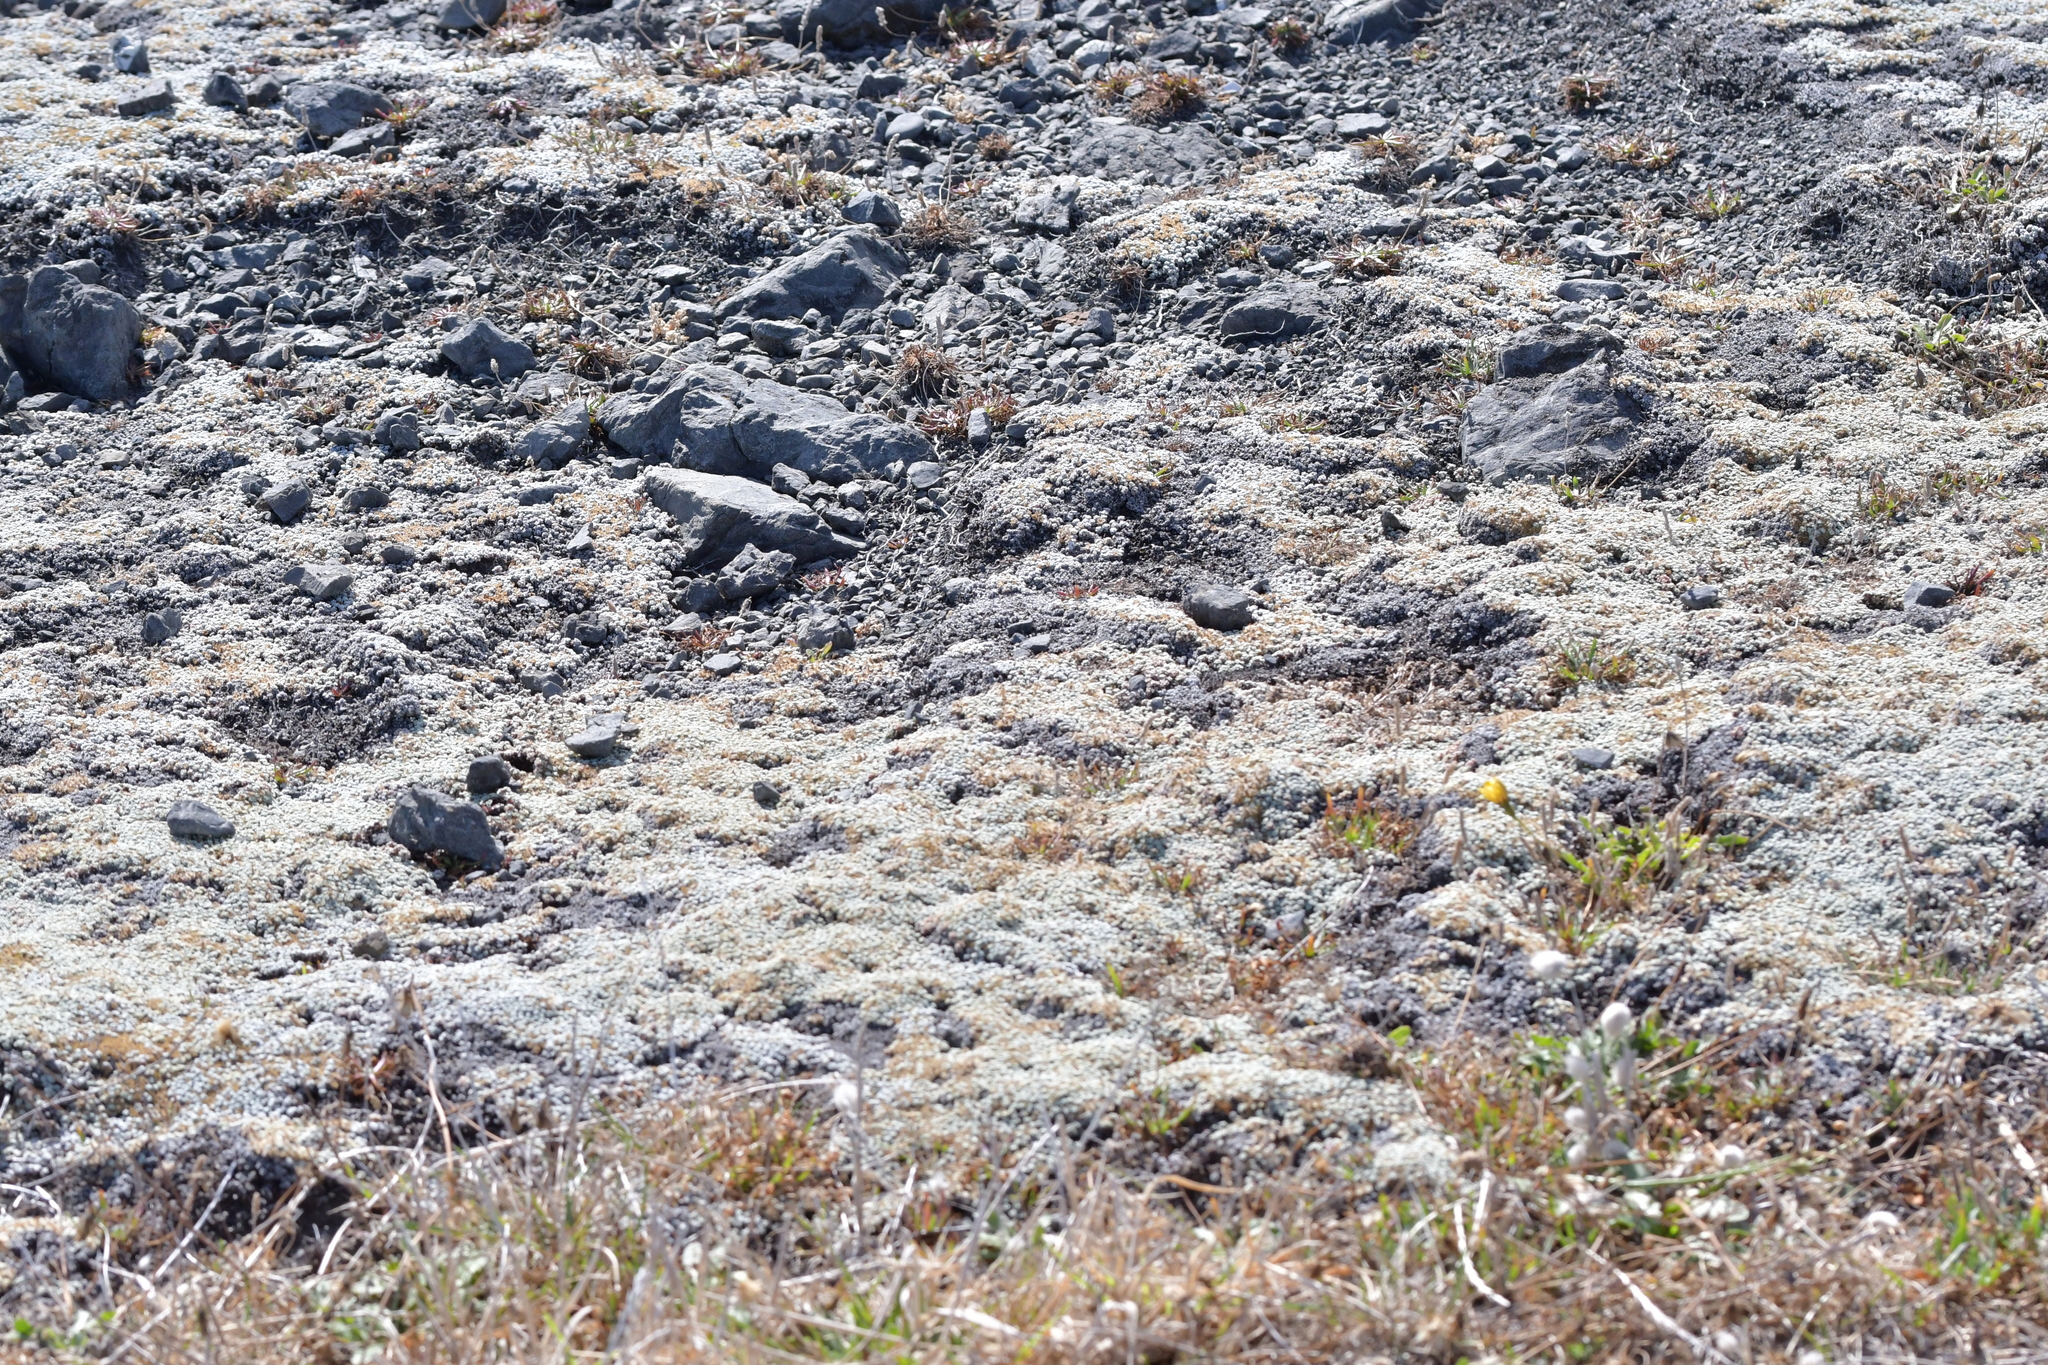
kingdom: Plantae
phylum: Tracheophyta
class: Magnoliopsida
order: Asterales
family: Asteraceae
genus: Raoulia
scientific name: Raoulia hookeri
